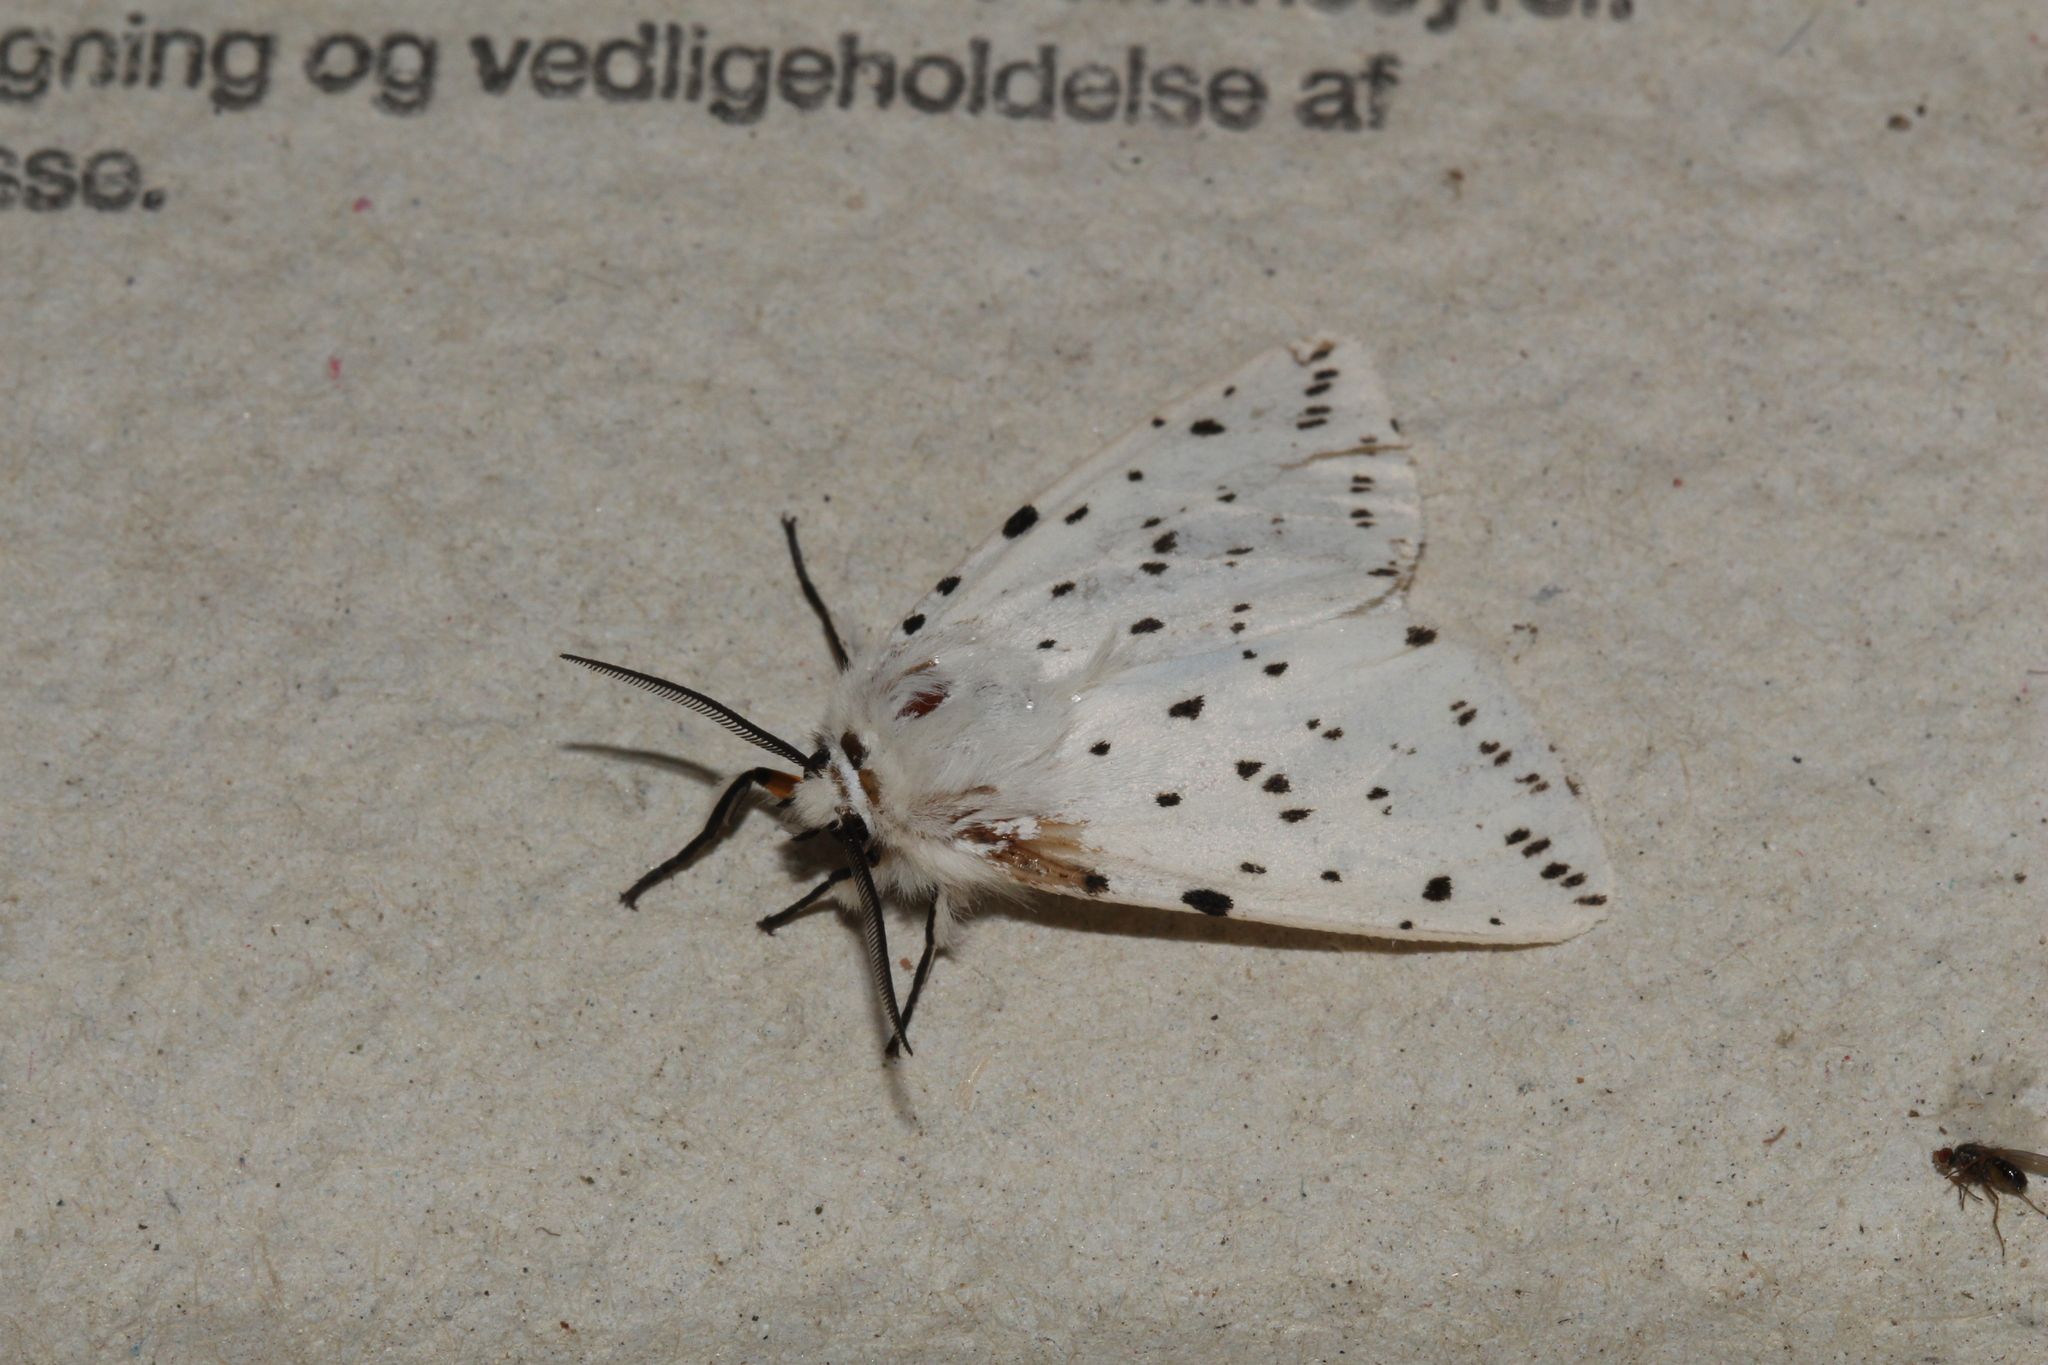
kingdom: Animalia
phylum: Arthropoda
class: Insecta
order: Lepidoptera
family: Erebidae
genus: Spilosoma
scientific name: Spilosoma lubricipeda
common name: White ermine
